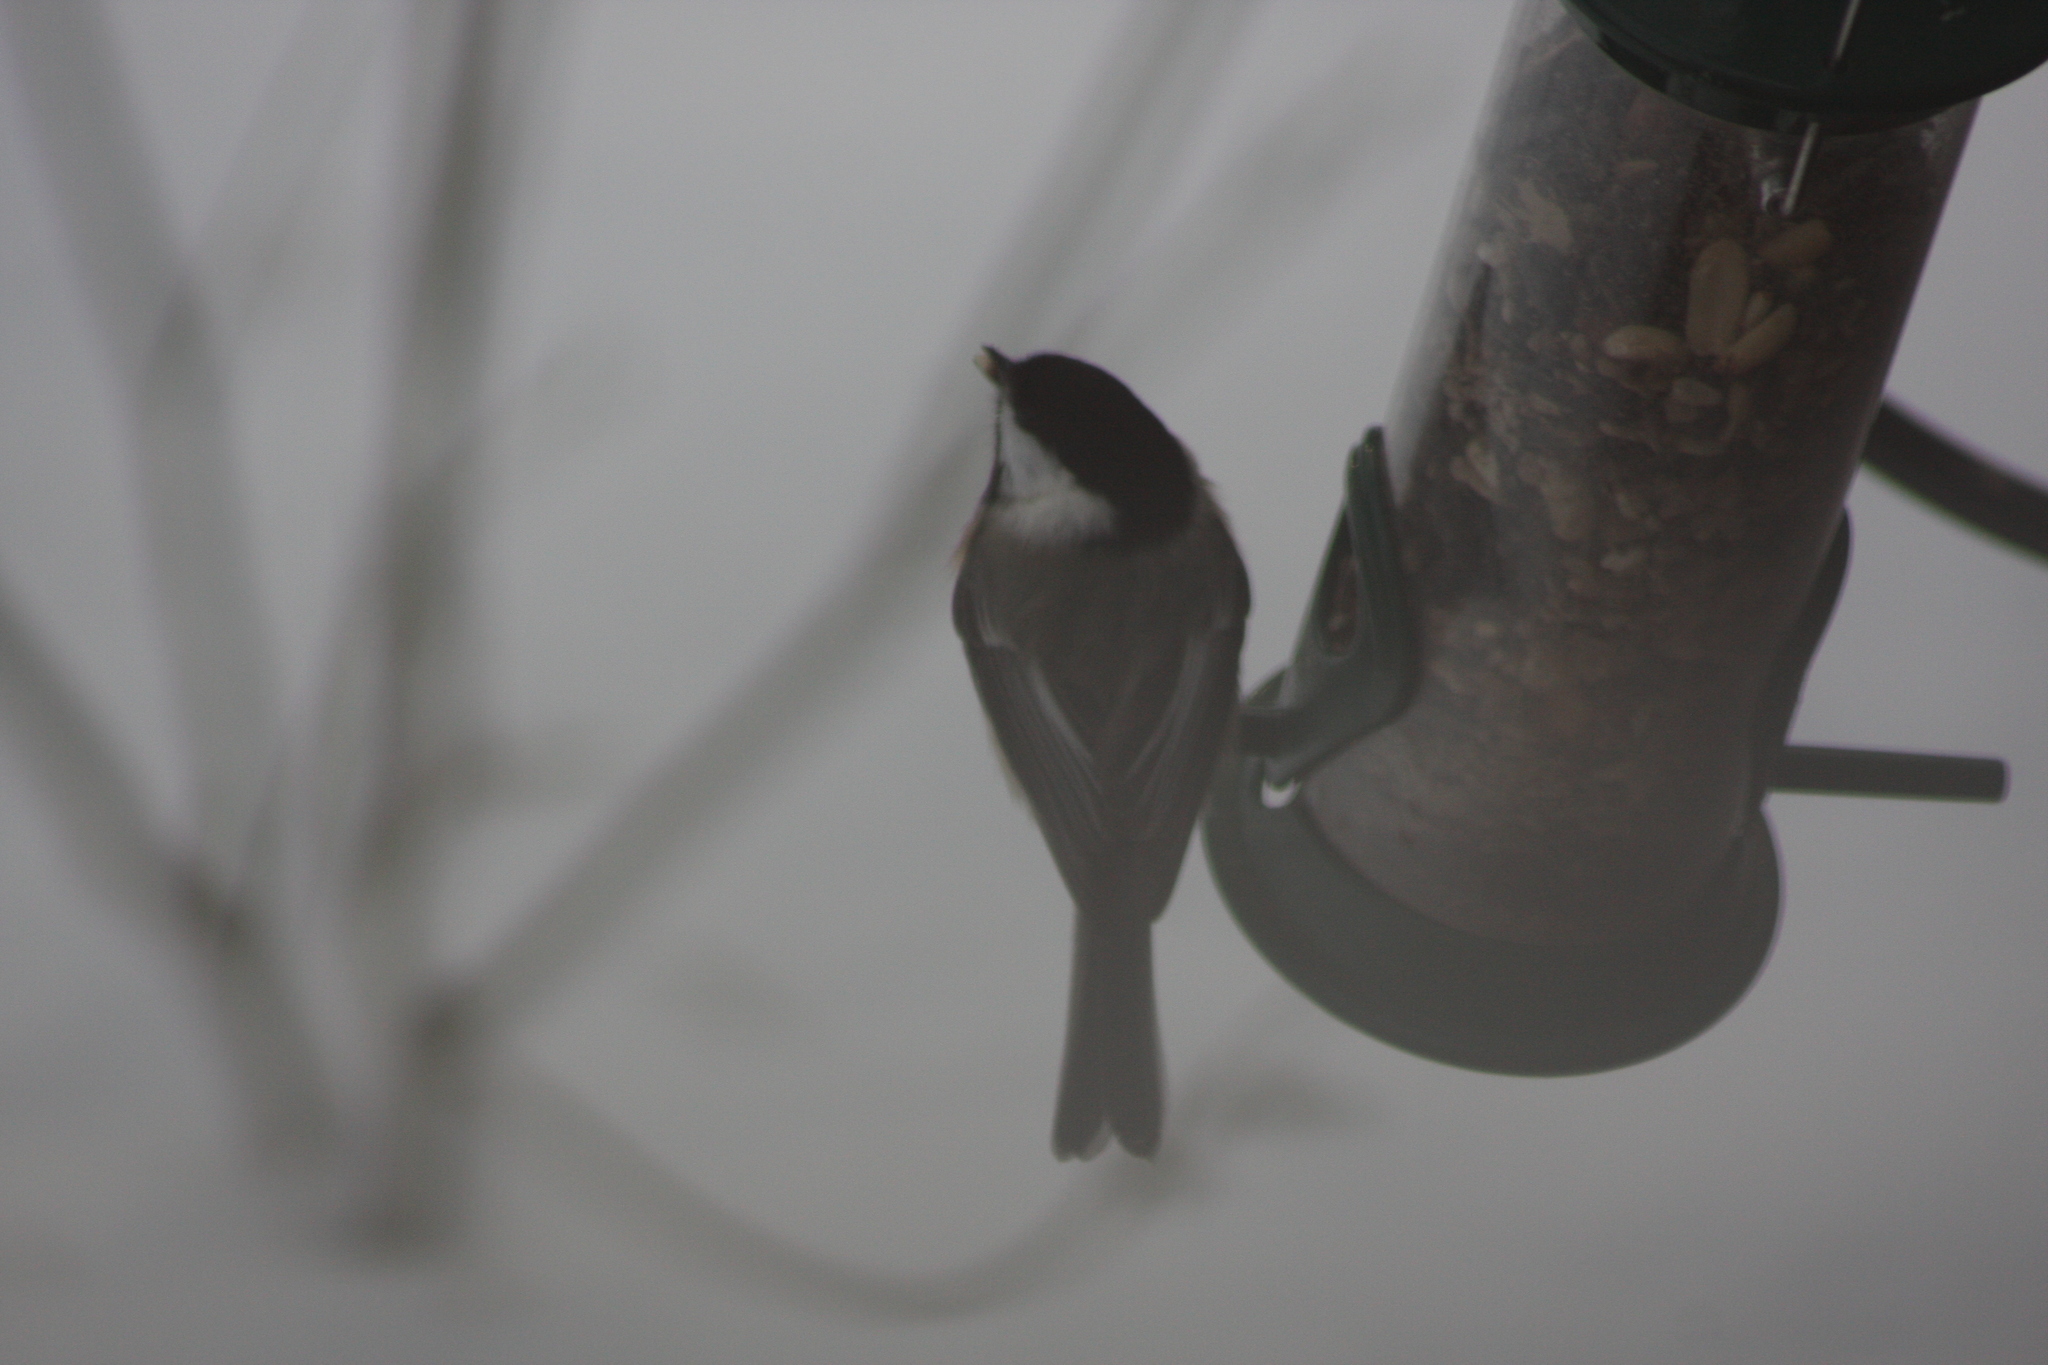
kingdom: Animalia
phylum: Chordata
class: Aves
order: Passeriformes
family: Paridae
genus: Poecile
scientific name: Poecile atricapillus
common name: Black-capped chickadee
